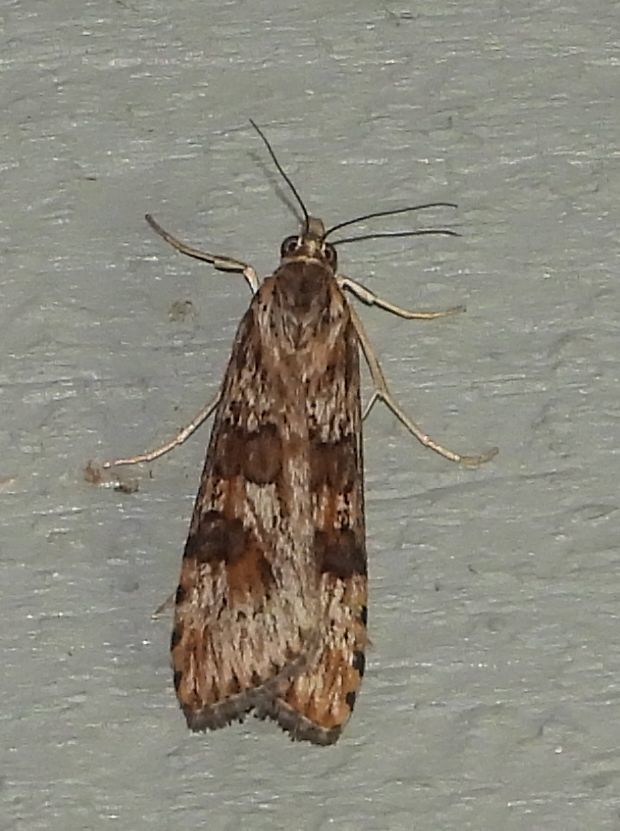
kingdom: Animalia
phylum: Arthropoda
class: Insecta
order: Lepidoptera
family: Crambidae
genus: Nomophila
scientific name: Nomophila nearctica
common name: American rush veneer
